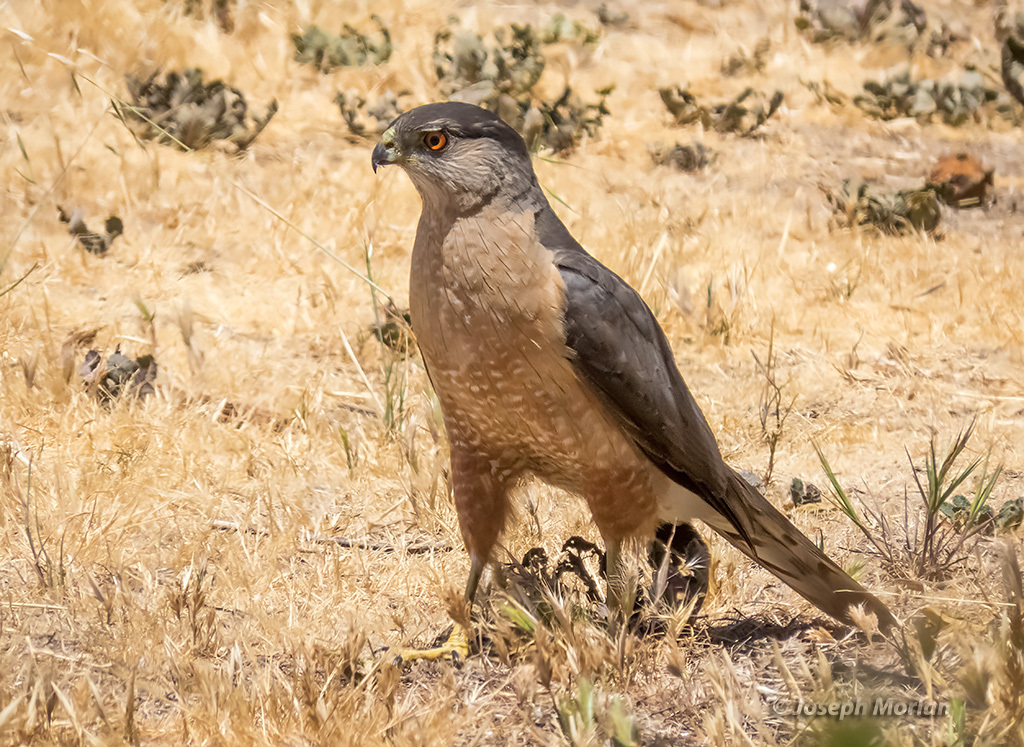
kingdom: Animalia
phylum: Chordata
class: Aves
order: Accipitriformes
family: Accipitridae
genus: Accipiter
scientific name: Accipiter cooperii
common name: Cooper's hawk
